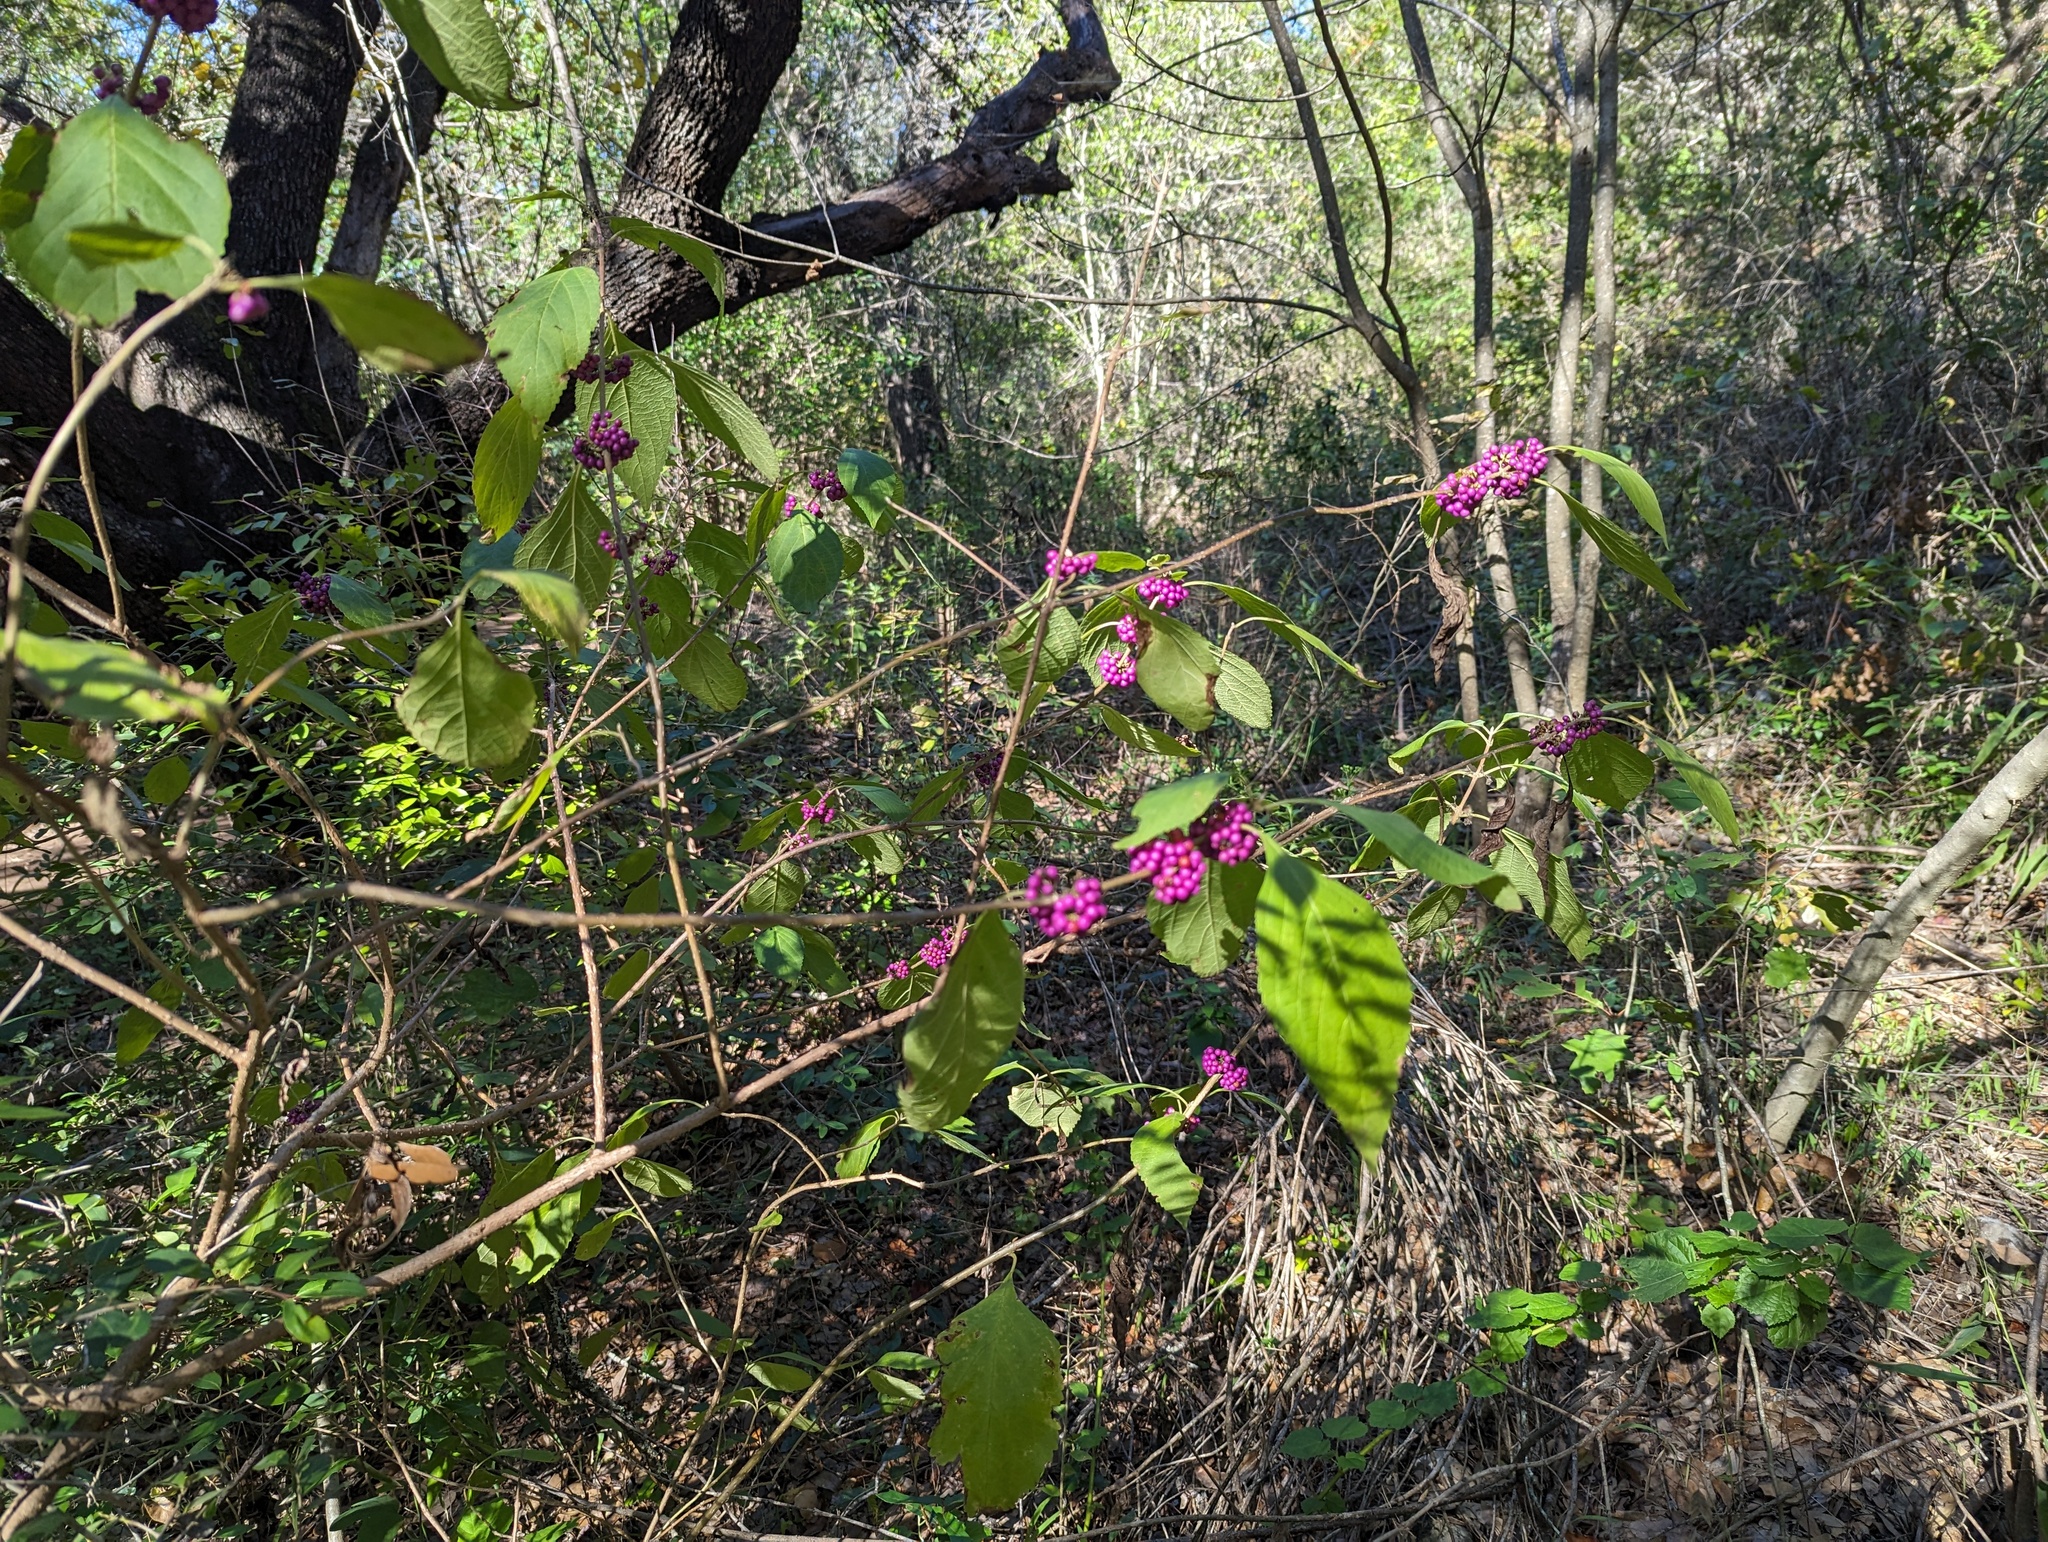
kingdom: Plantae
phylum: Tracheophyta
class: Magnoliopsida
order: Lamiales
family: Lamiaceae
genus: Callicarpa
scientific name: Callicarpa americana
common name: American beautyberry
